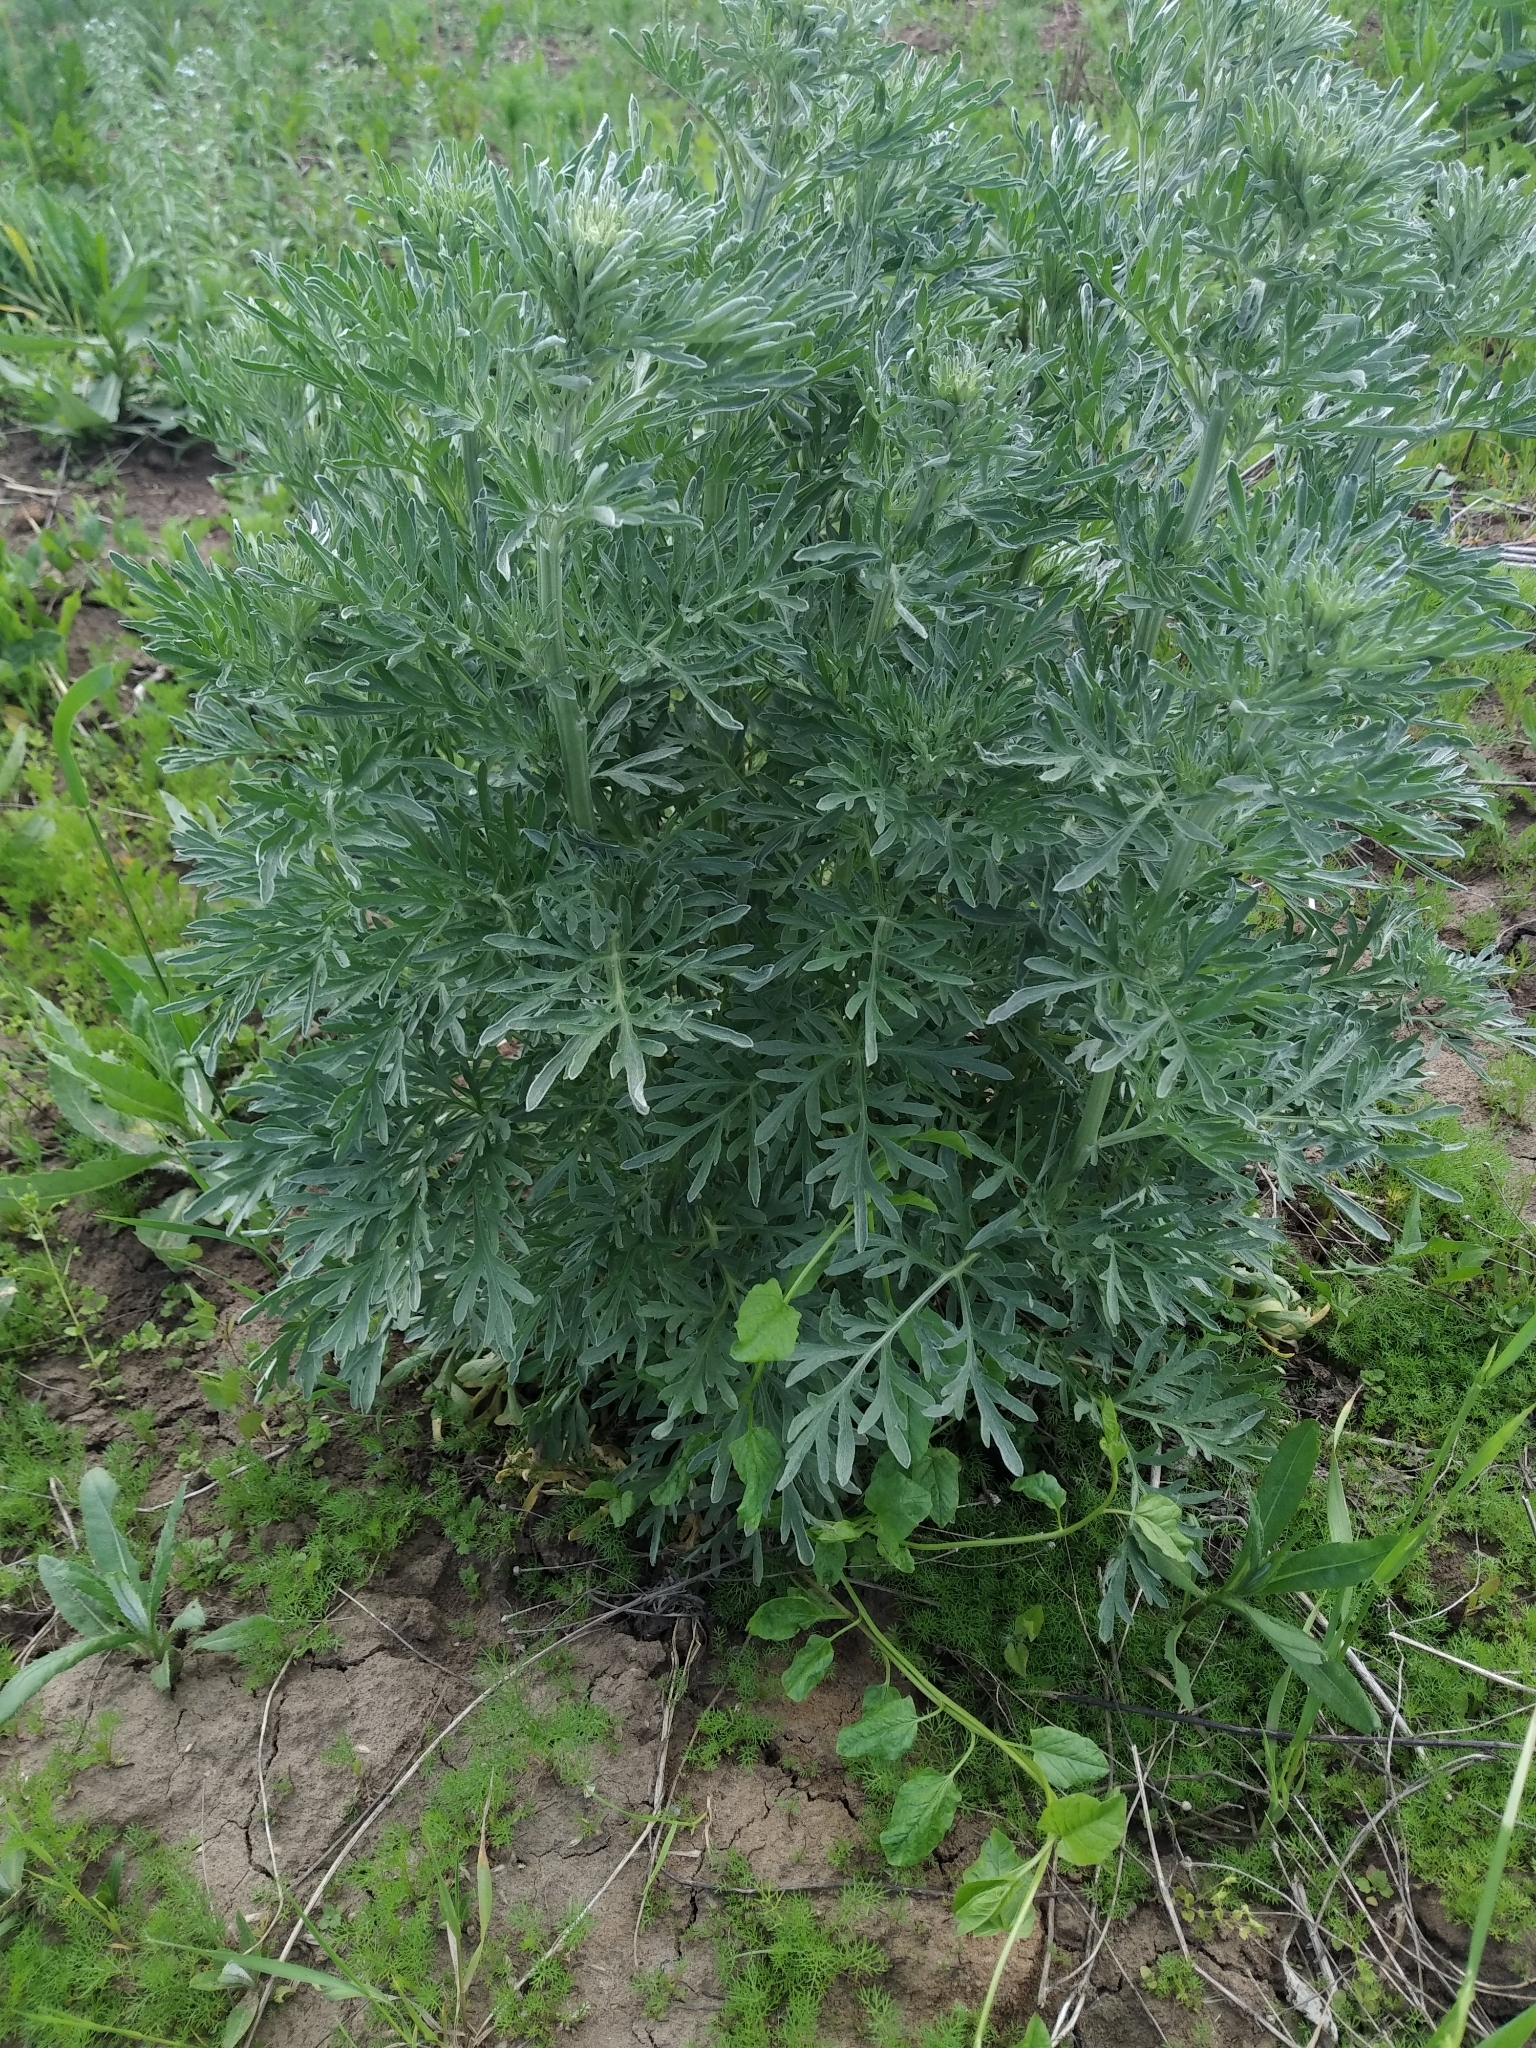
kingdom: Plantae
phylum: Tracheophyta
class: Magnoliopsida
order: Asterales
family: Asteraceae
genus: Artemisia
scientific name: Artemisia absinthium
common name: Wormwood
